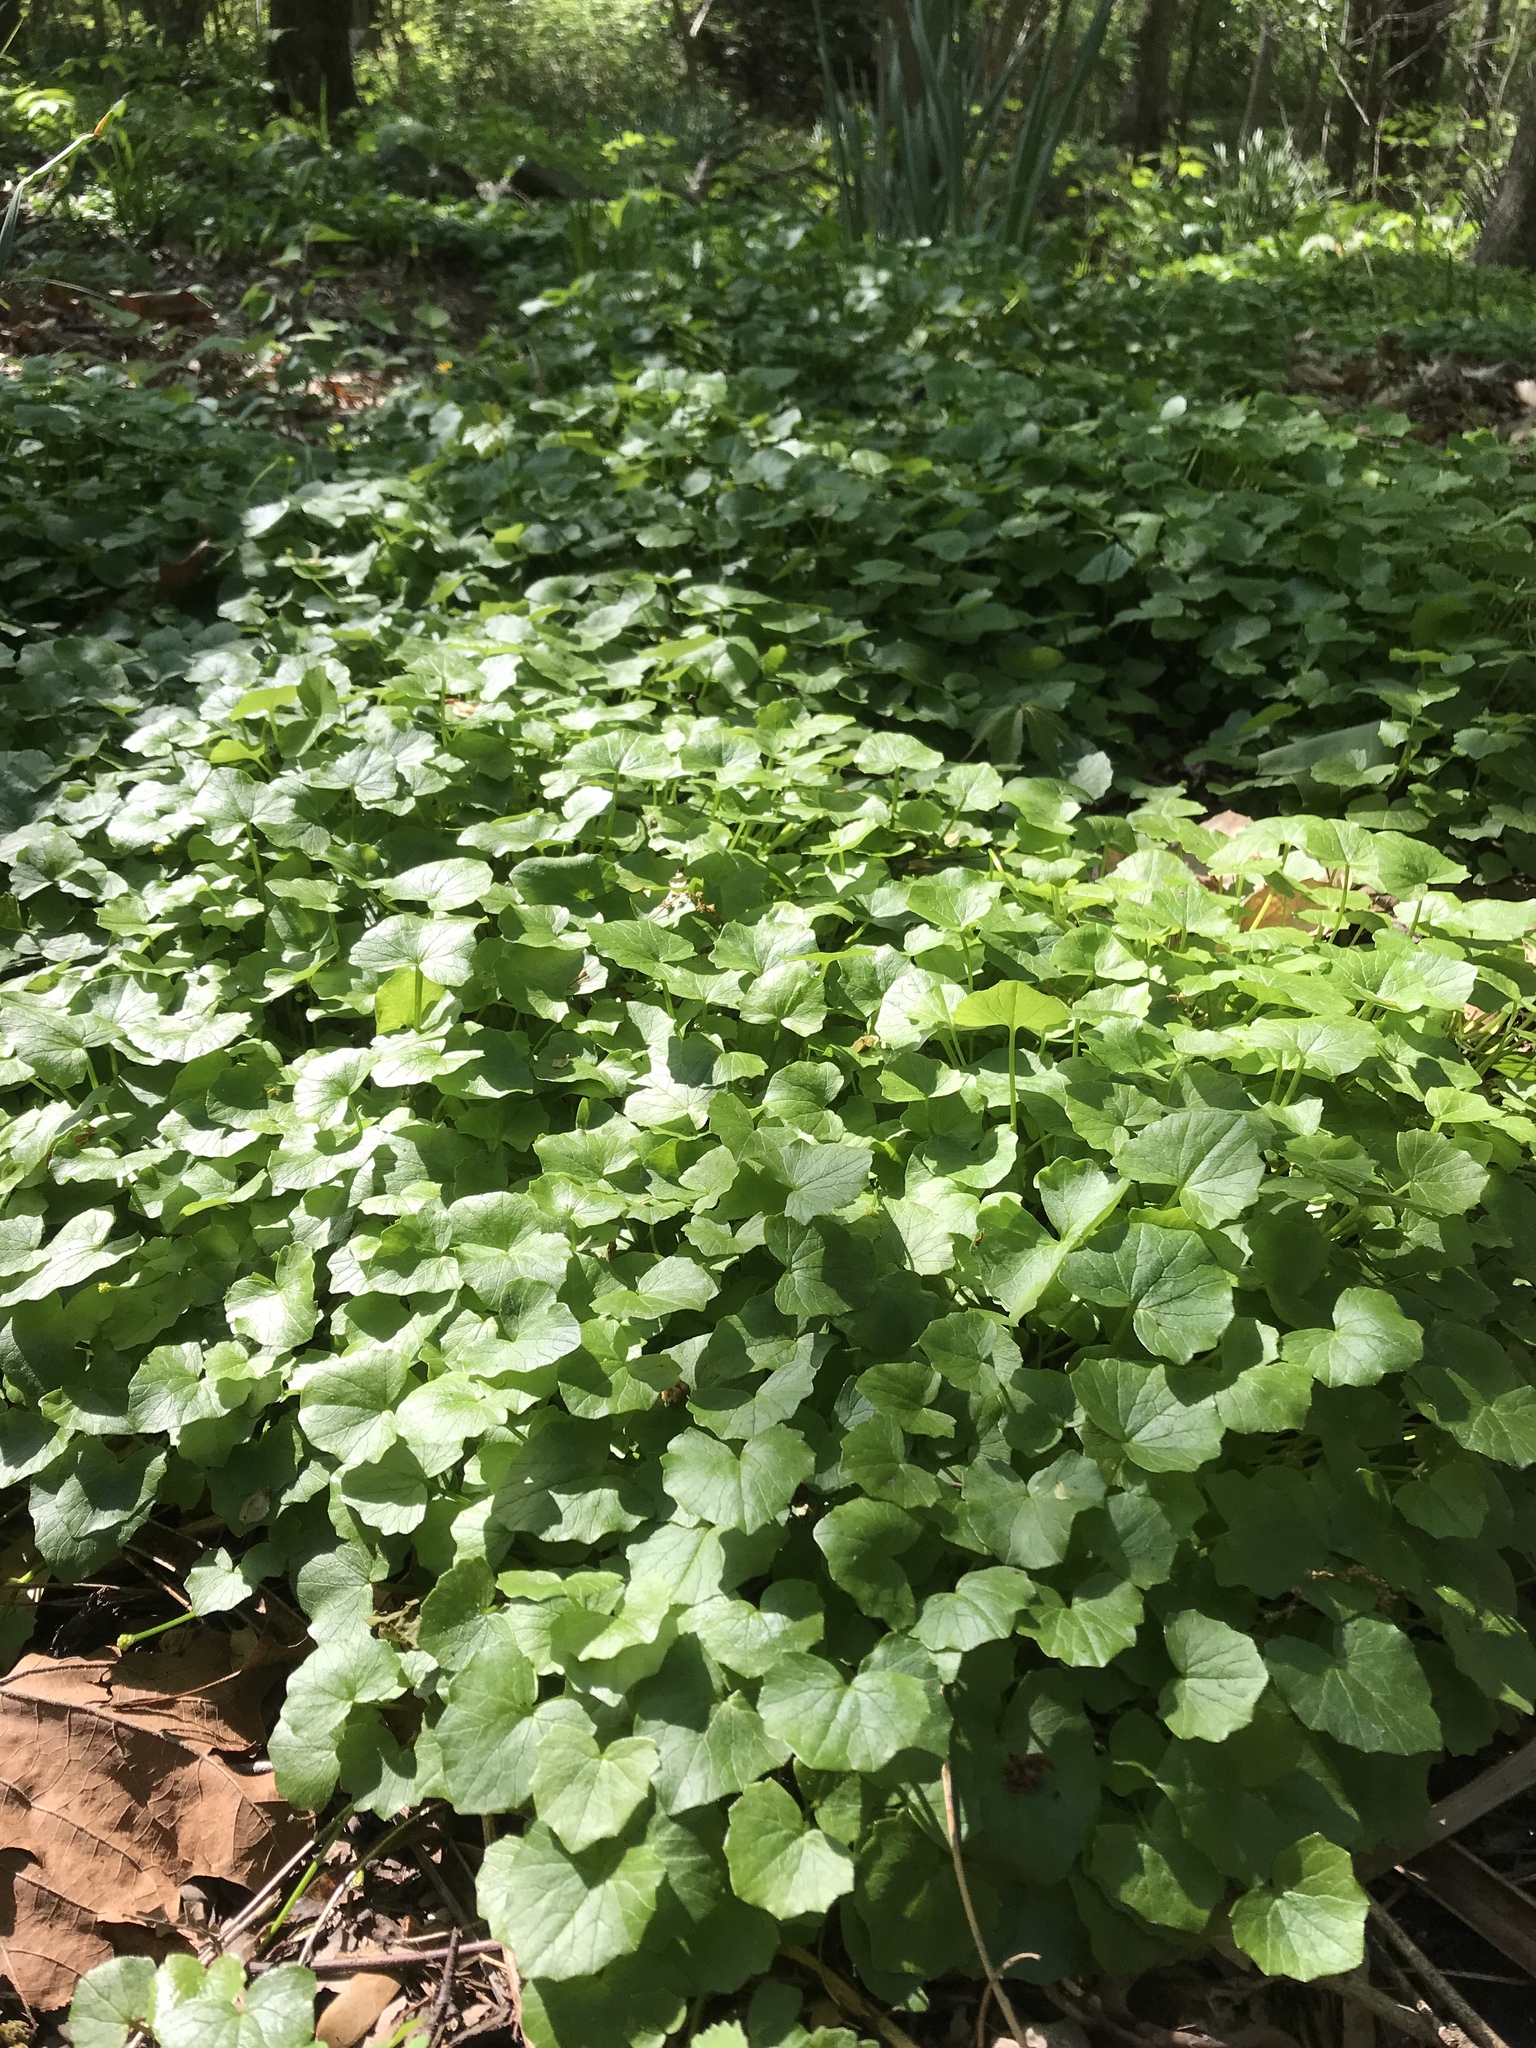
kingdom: Plantae
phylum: Tracheophyta
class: Magnoliopsida
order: Ranunculales
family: Ranunculaceae
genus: Ficaria
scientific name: Ficaria verna
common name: Lesser celandine
